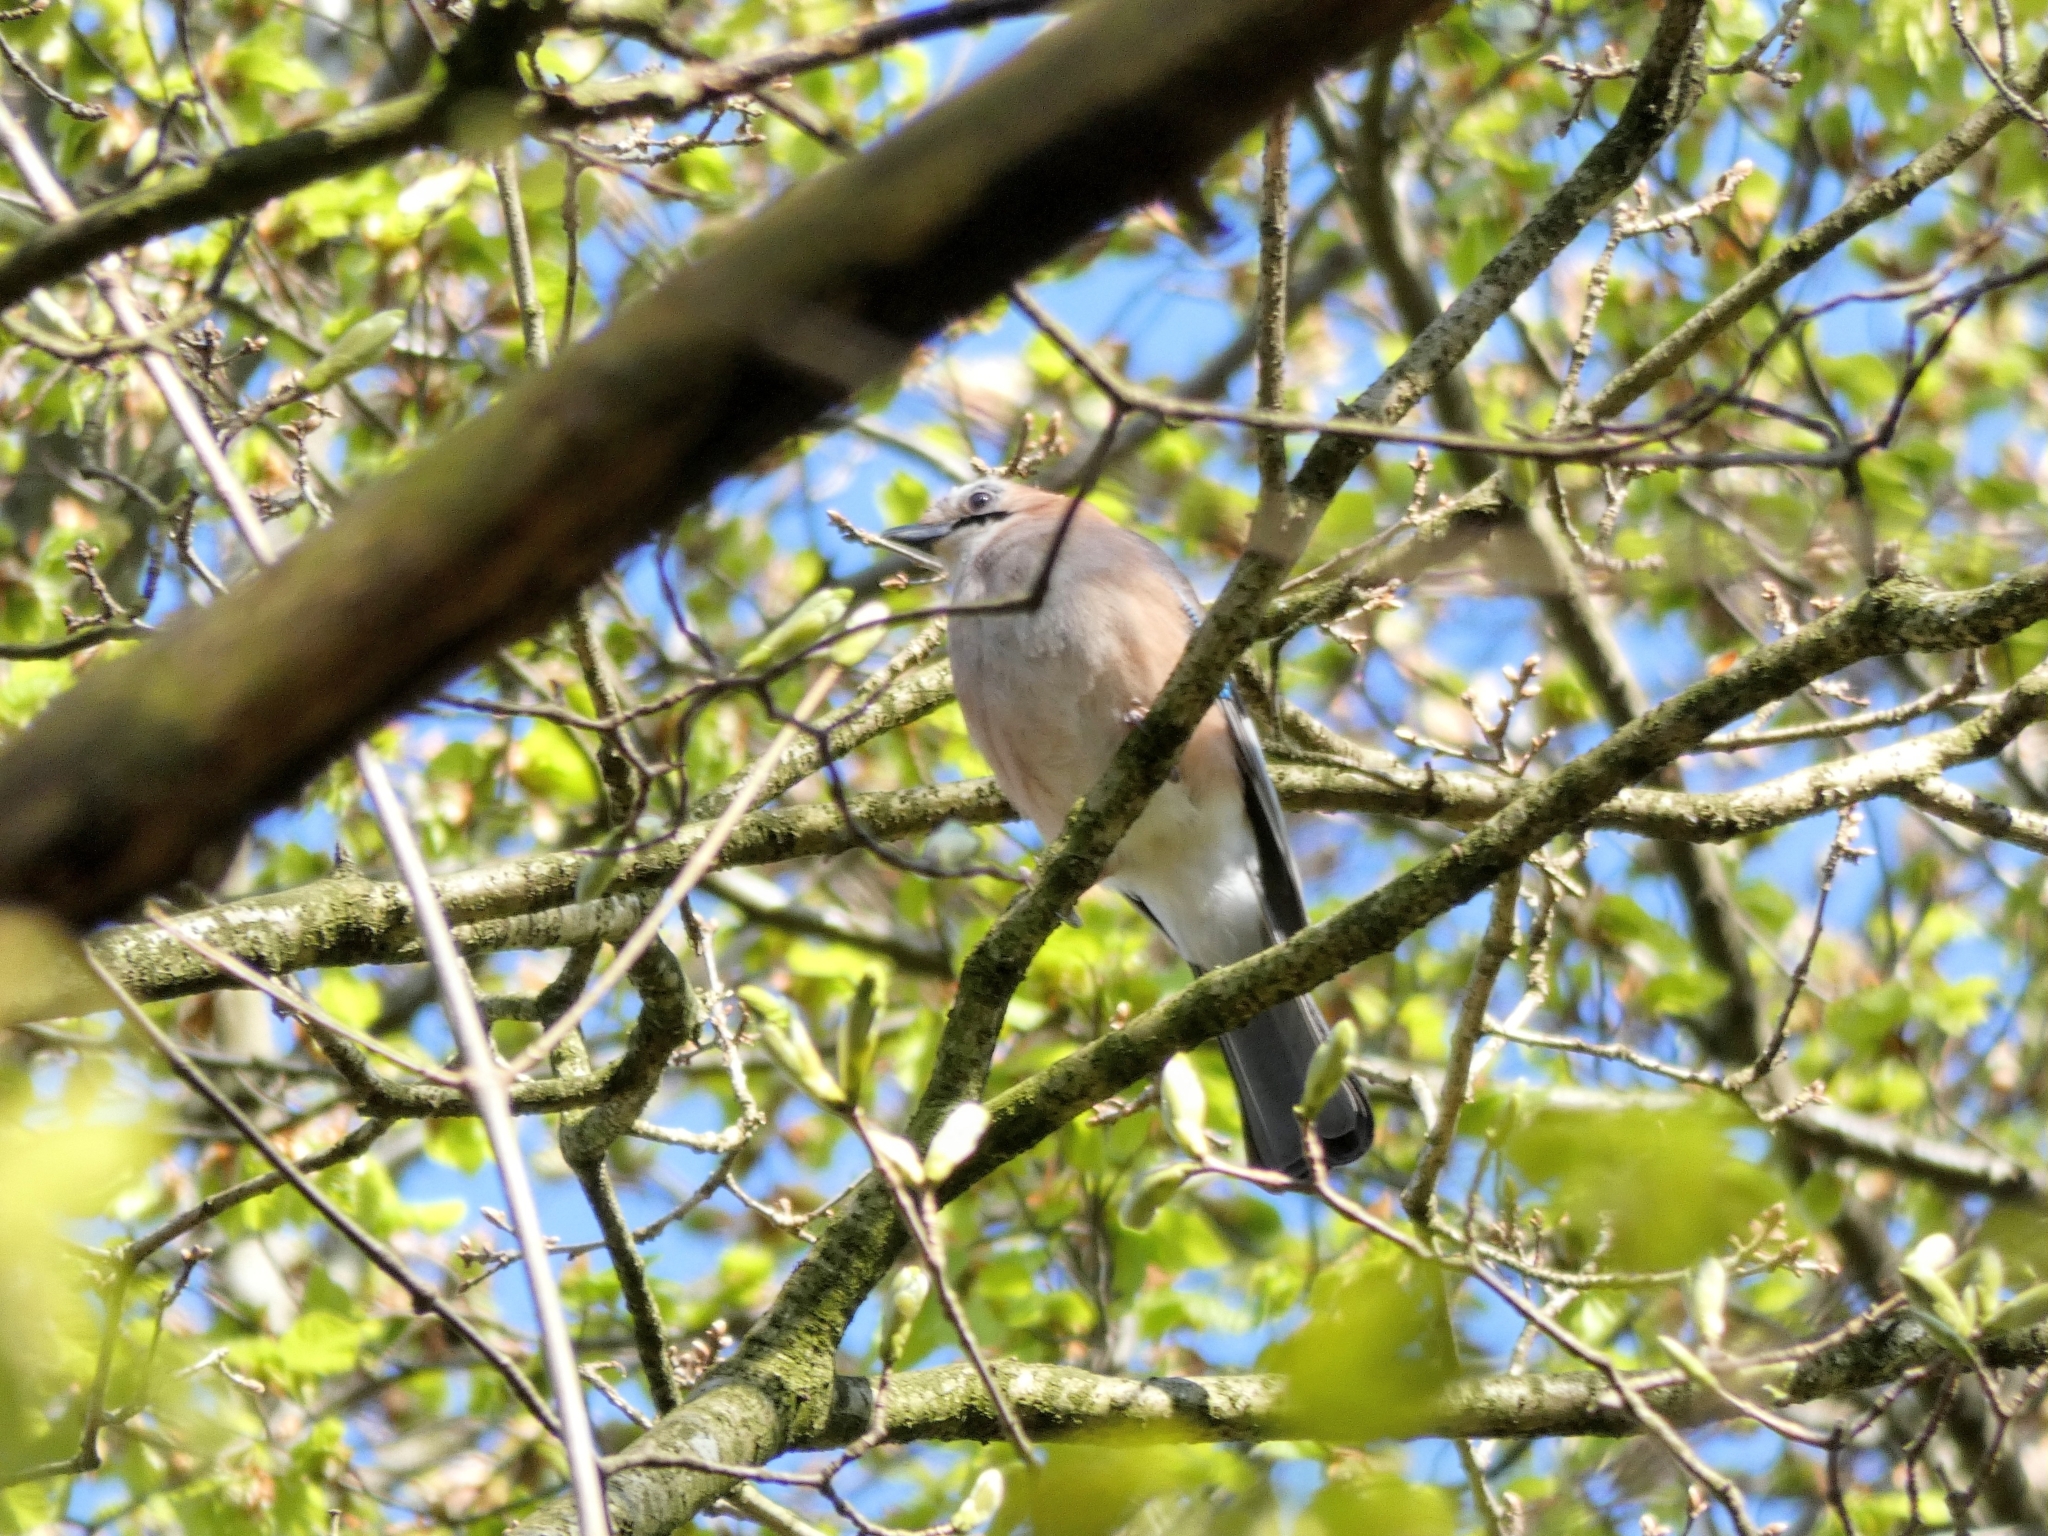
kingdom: Animalia
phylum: Chordata
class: Aves
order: Passeriformes
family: Corvidae
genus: Garrulus
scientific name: Garrulus glandarius
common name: Eurasian jay
